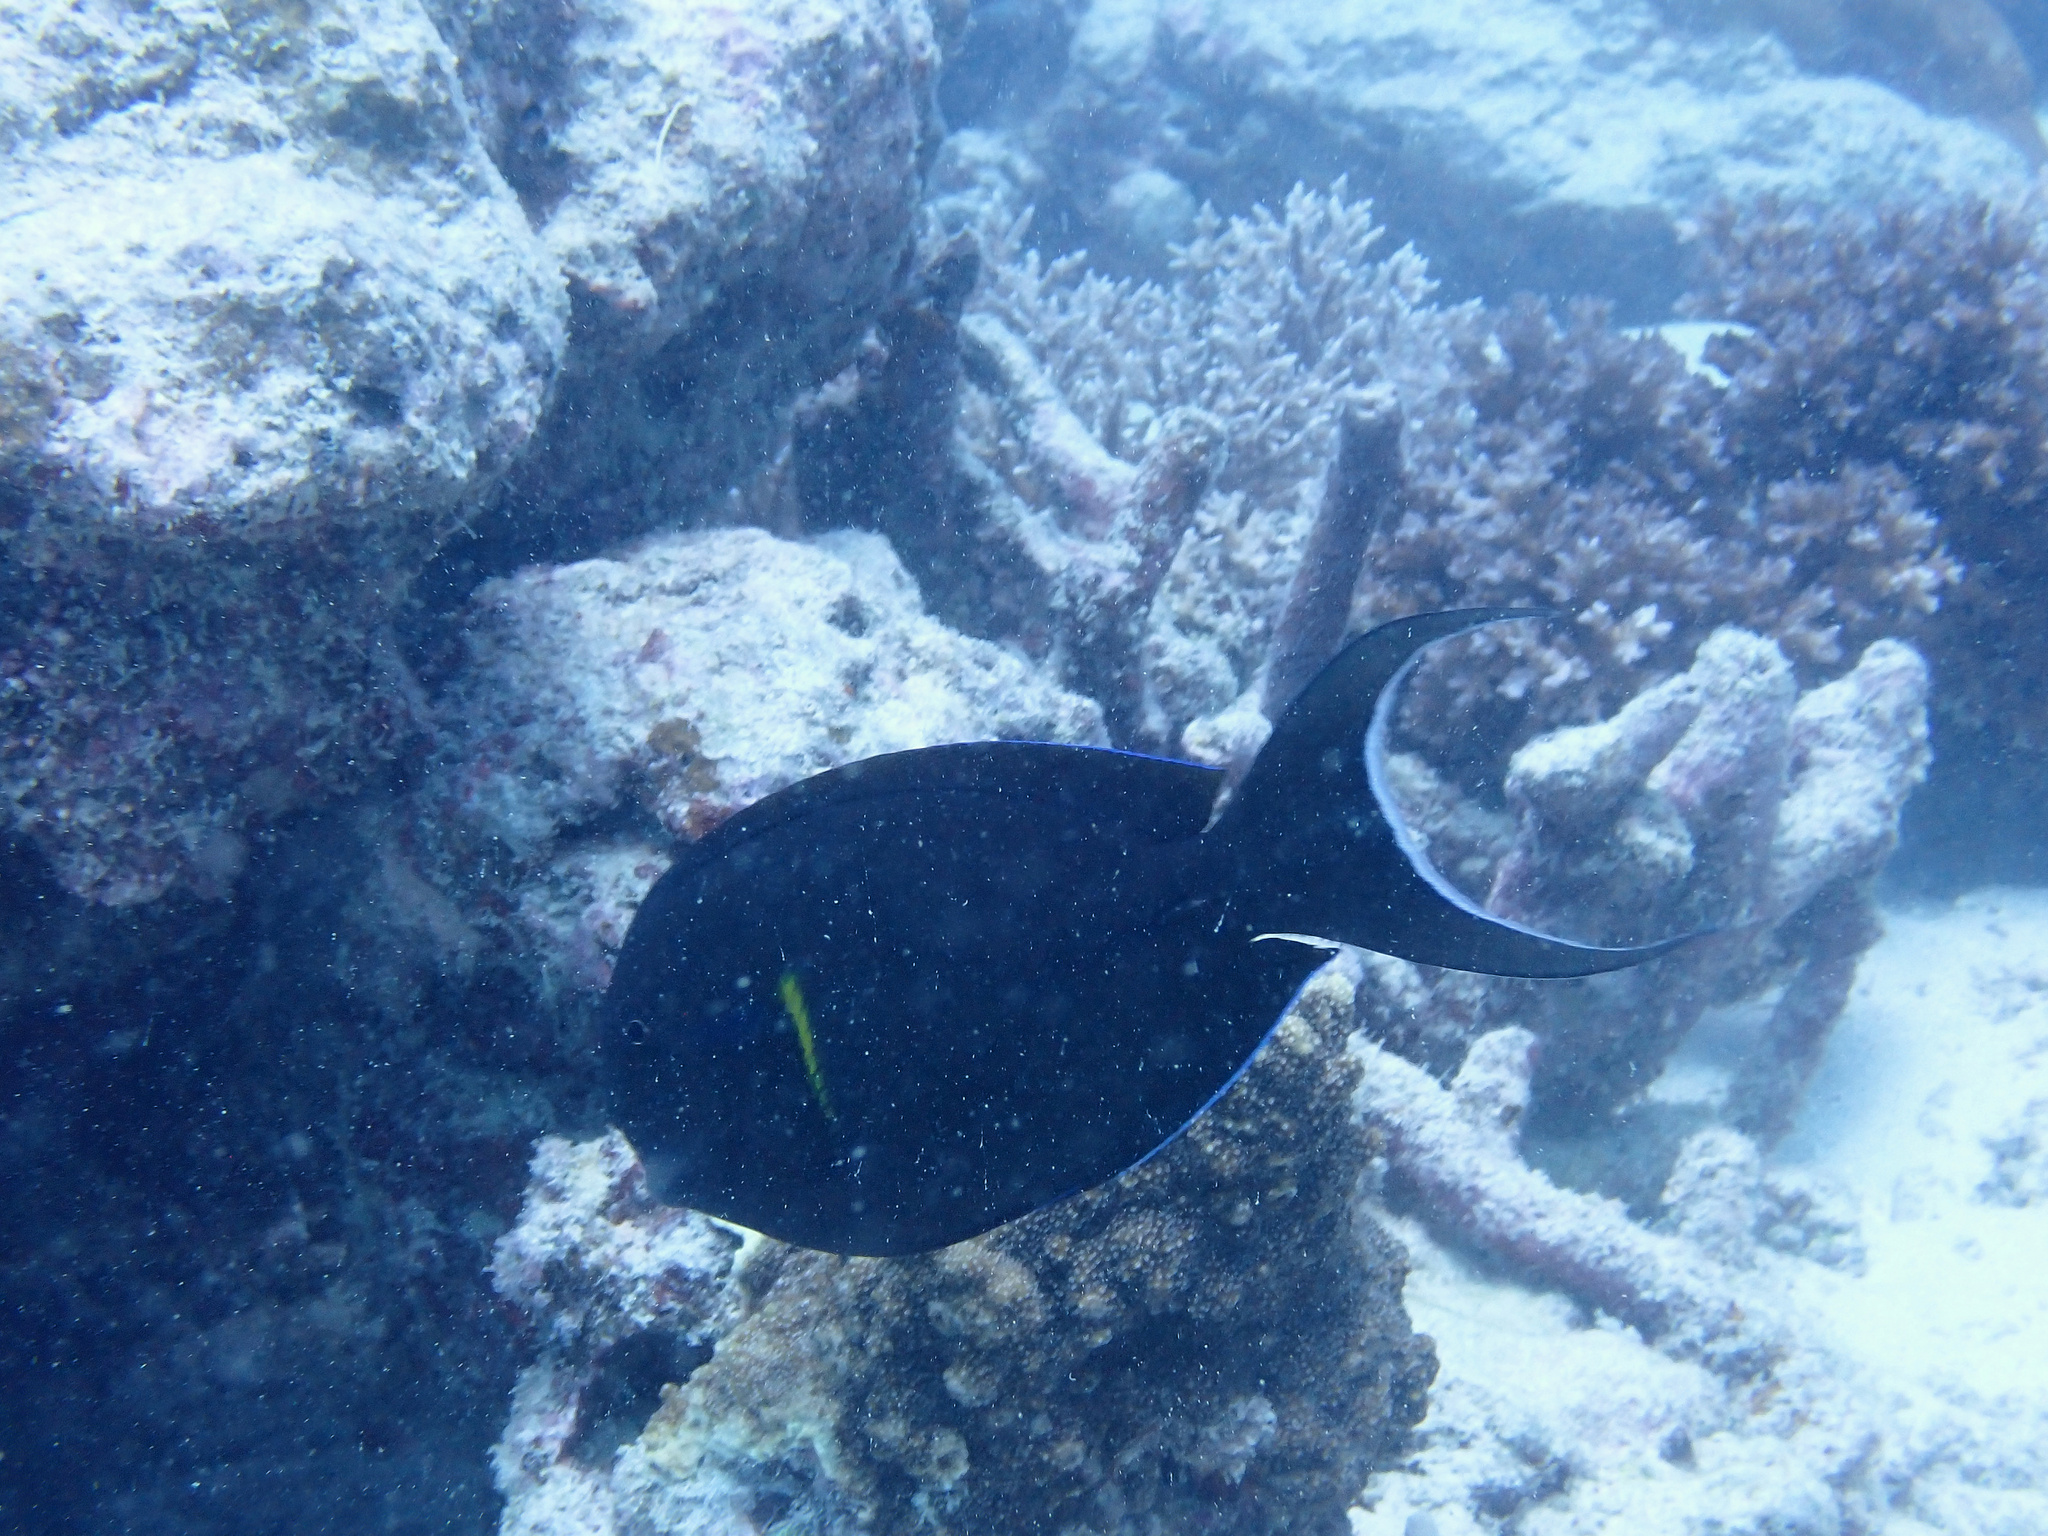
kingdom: Animalia
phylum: Chordata
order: Perciformes
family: Acanthuridae
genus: Acanthurus
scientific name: Acanthurus nigricauda
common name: Black-barred surgeonfish
